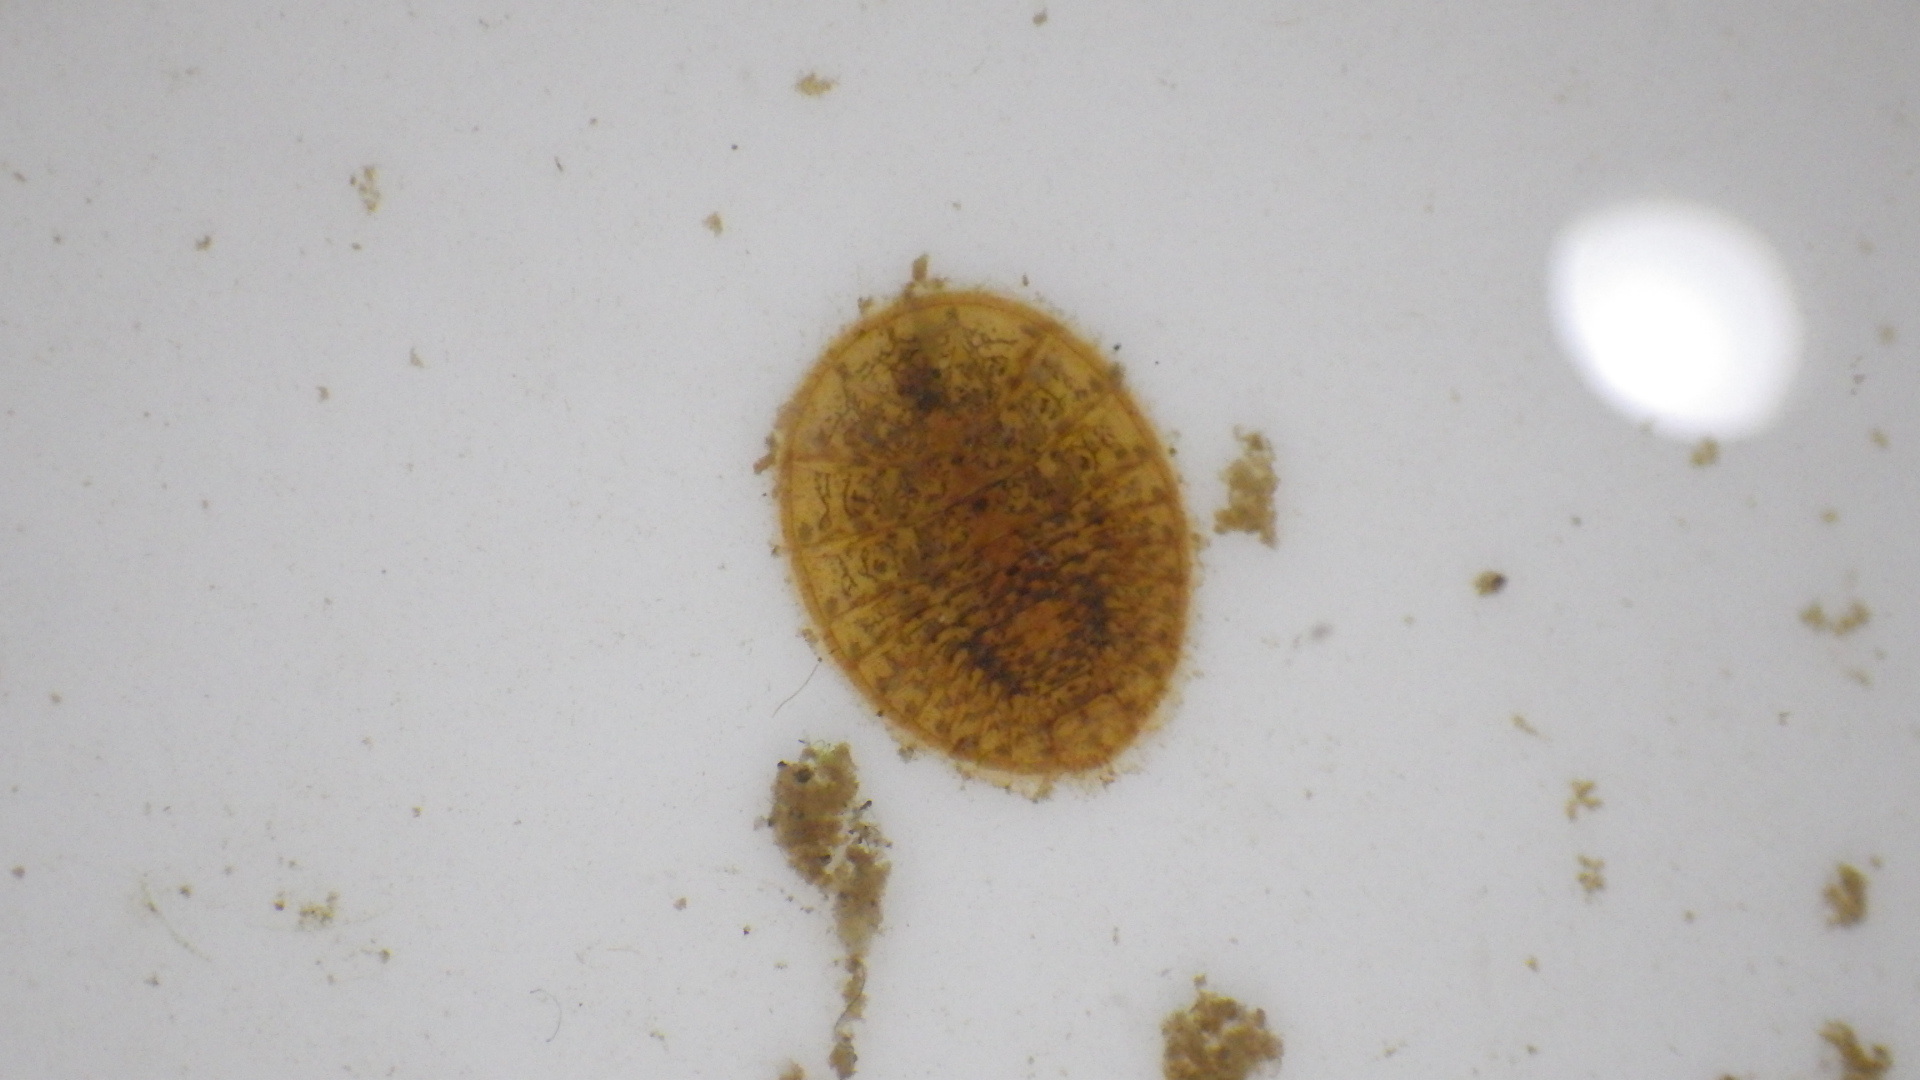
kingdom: Animalia
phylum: Arthropoda
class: Insecta
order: Coleoptera
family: Psephenidae
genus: Psephenus
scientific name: Psephenus herricki
